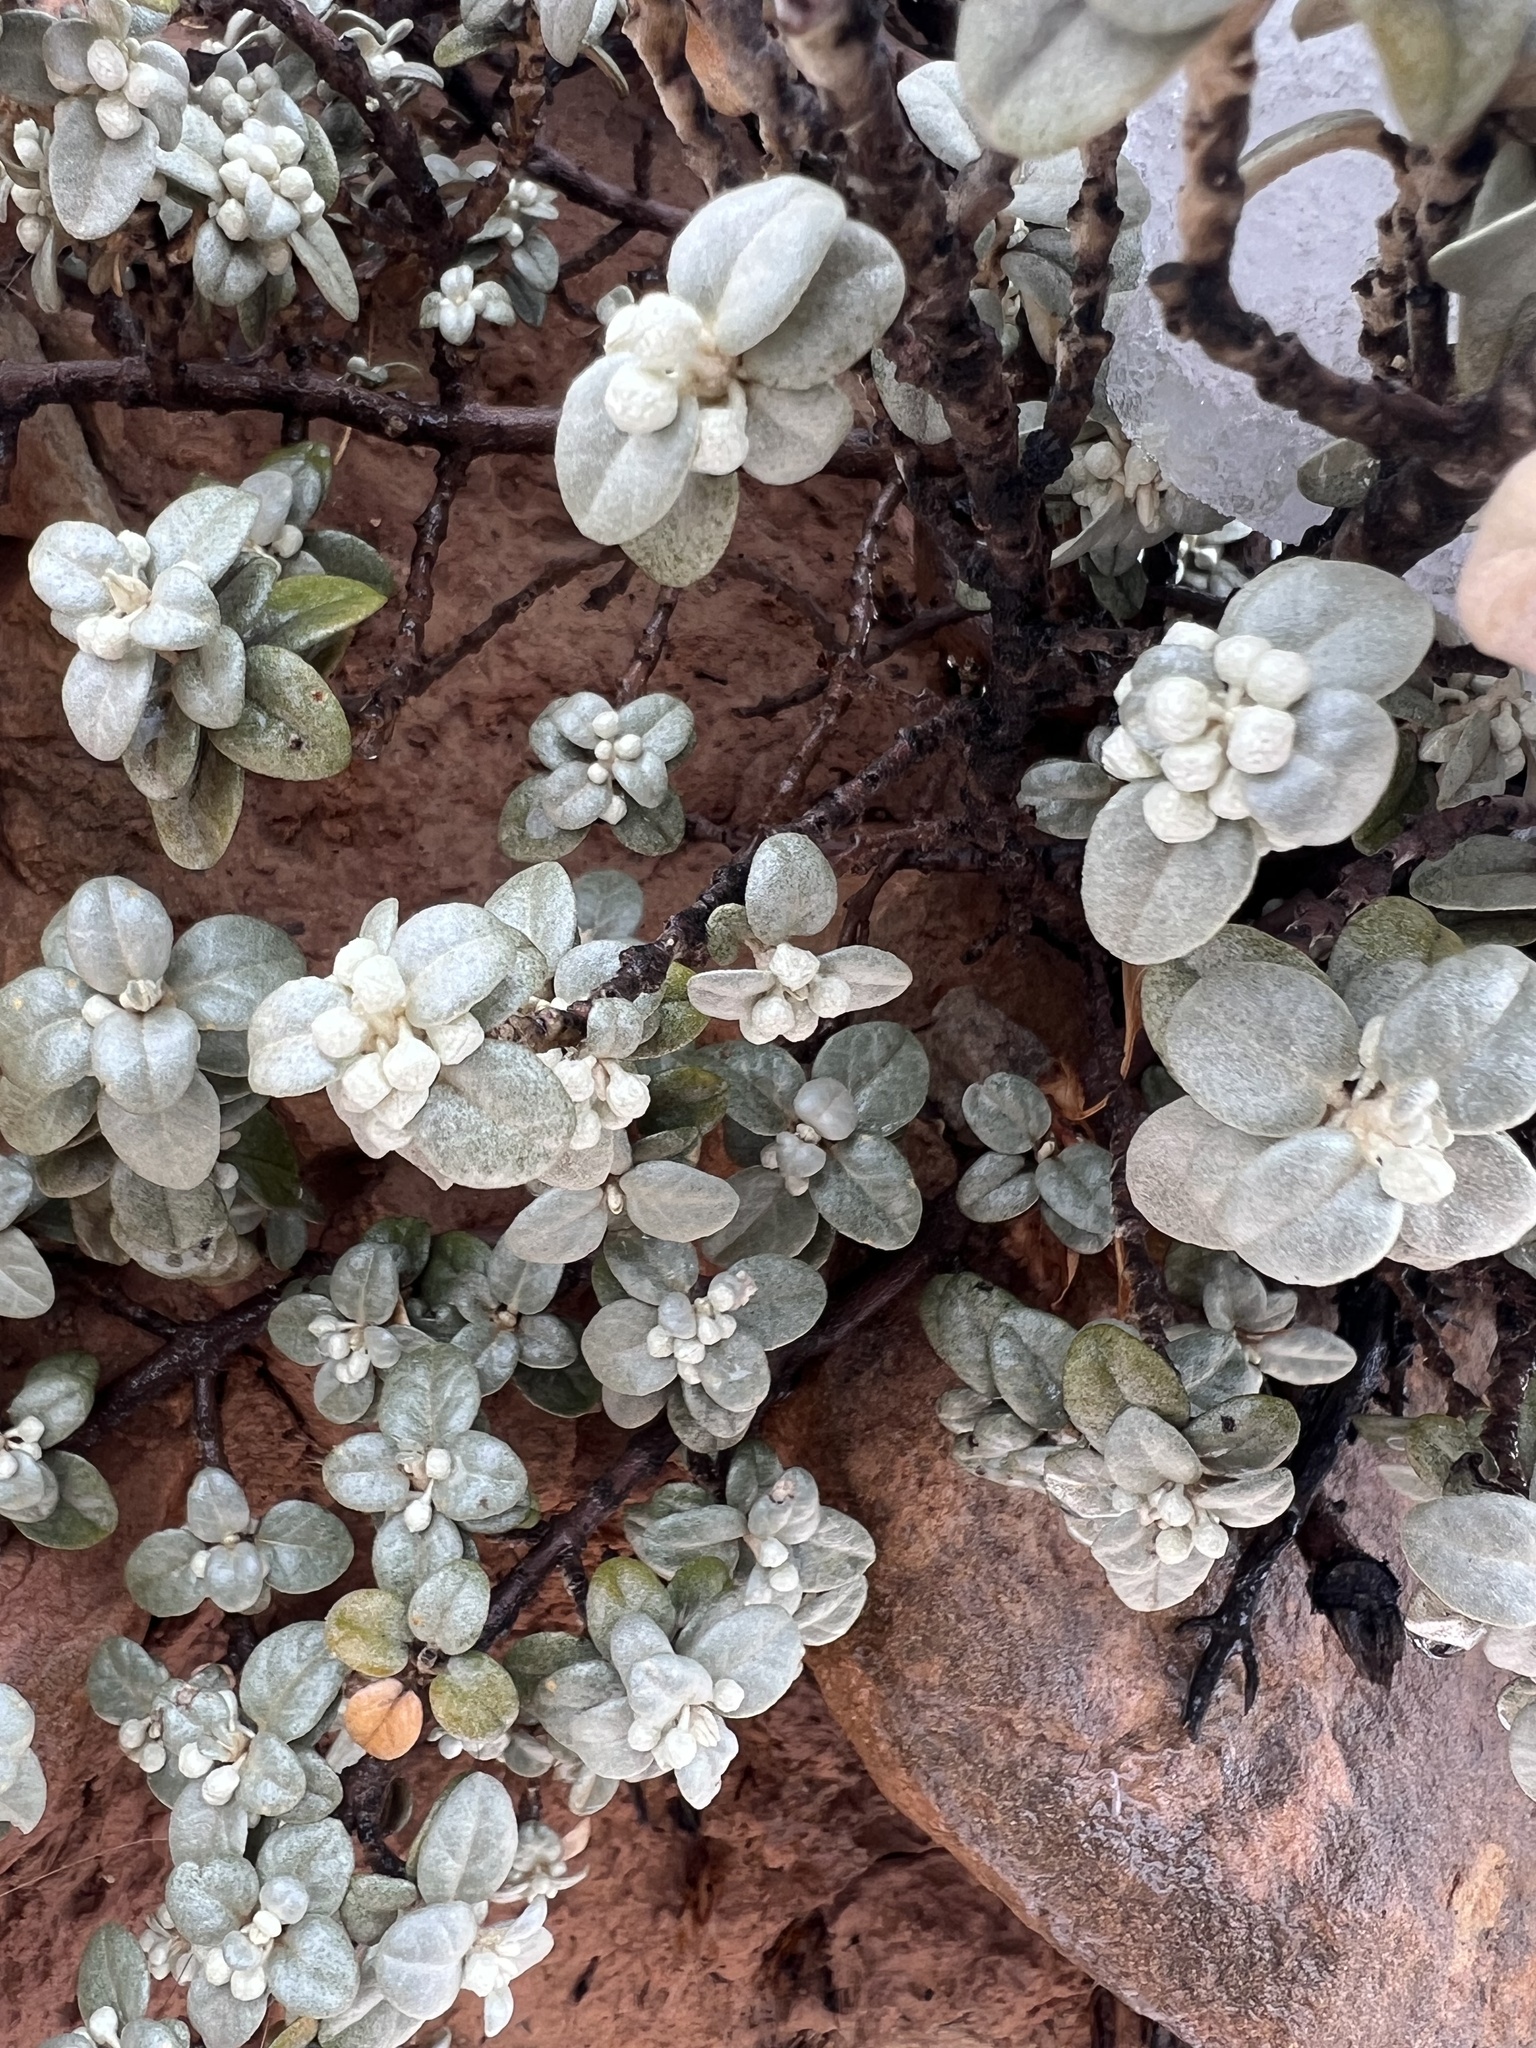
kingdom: Plantae
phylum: Tracheophyta
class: Magnoliopsida
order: Rosales
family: Elaeagnaceae
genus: Shepherdia
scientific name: Shepherdia rotundifolia
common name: Silverscale
